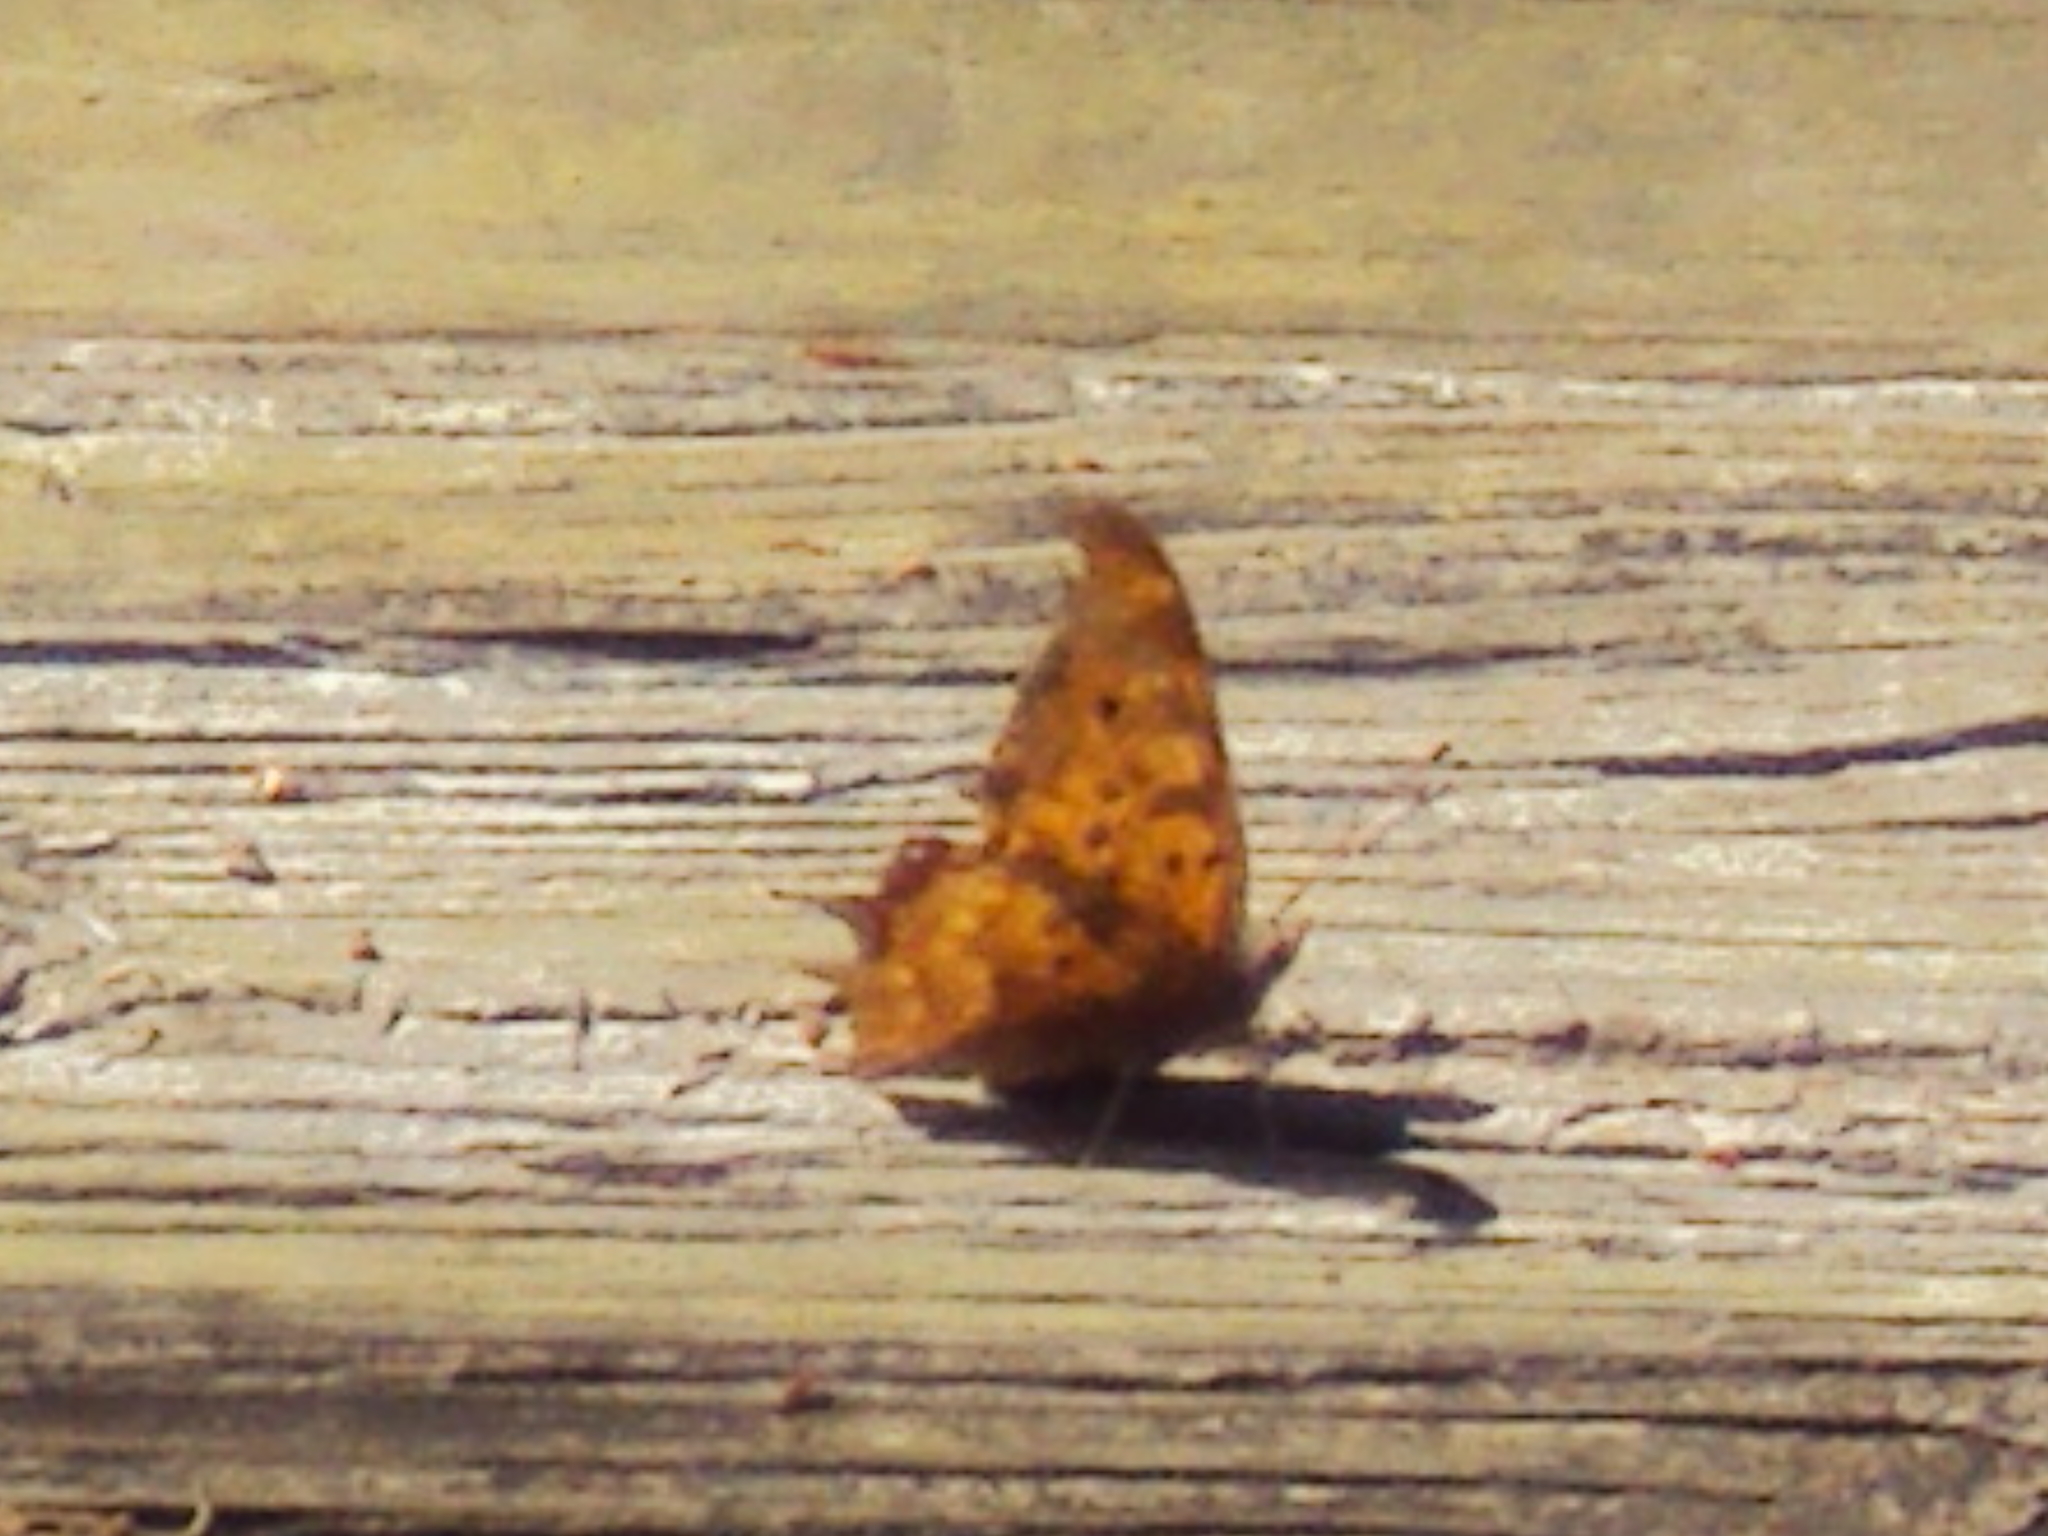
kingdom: Animalia
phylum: Arthropoda
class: Insecta
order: Lepidoptera
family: Nymphalidae
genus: Polygonia
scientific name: Polygonia interrogationis
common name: Question mark
